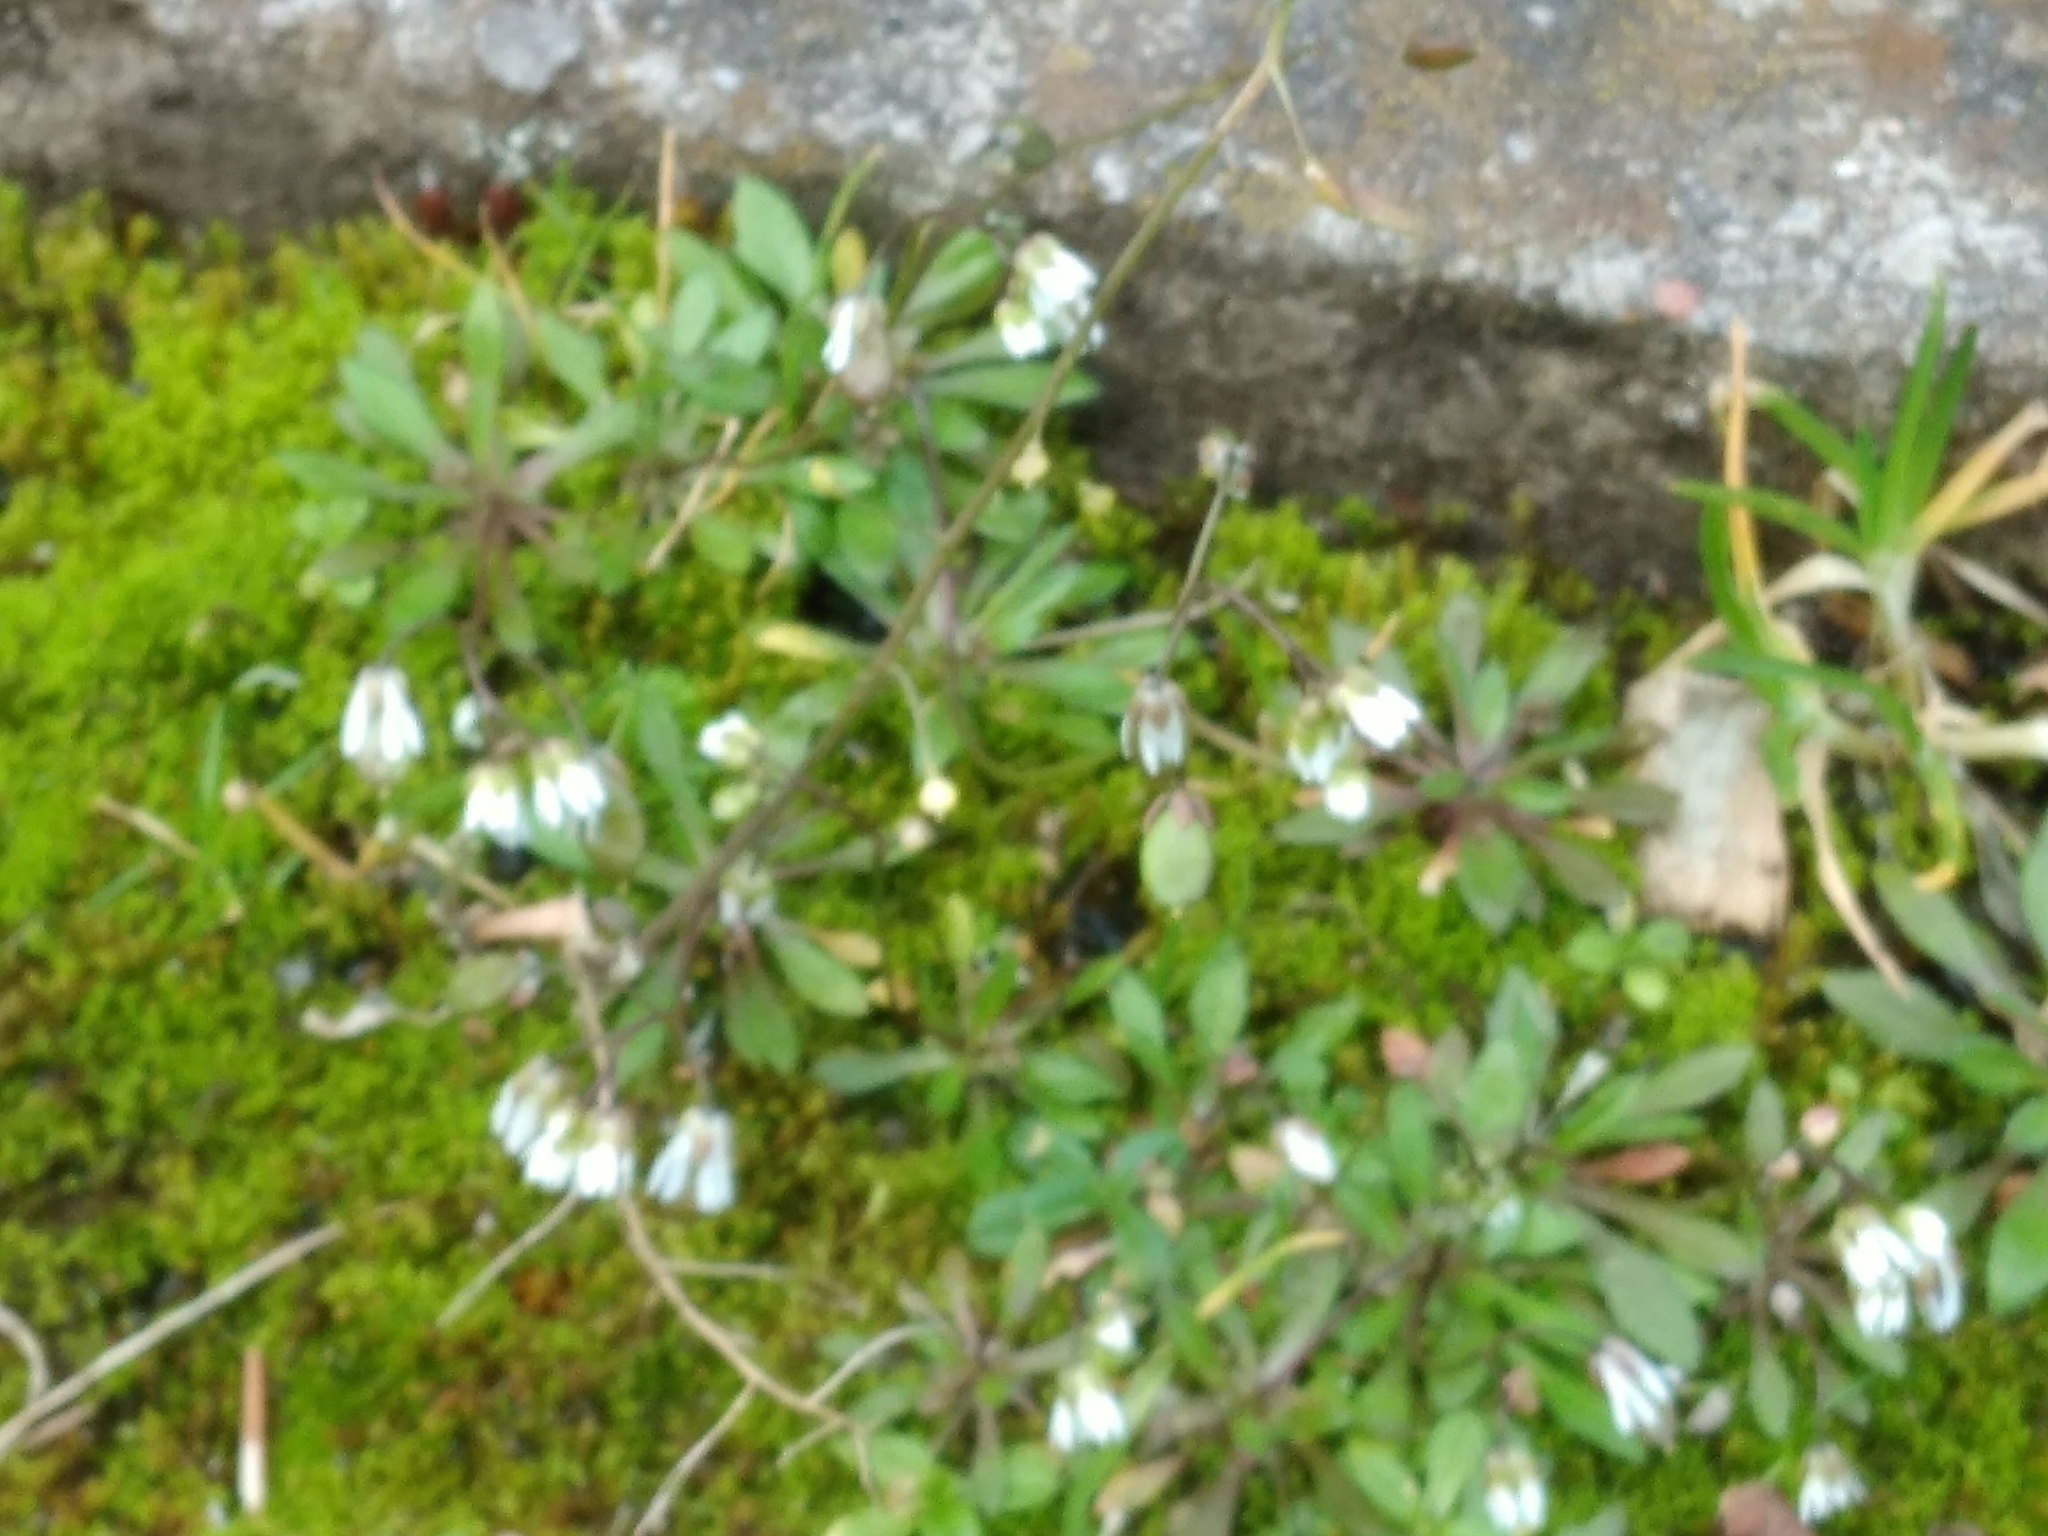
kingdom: Plantae
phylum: Tracheophyta
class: Magnoliopsida
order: Brassicales
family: Brassicaceae
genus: Draba
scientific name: Draba verna
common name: Spring draba
